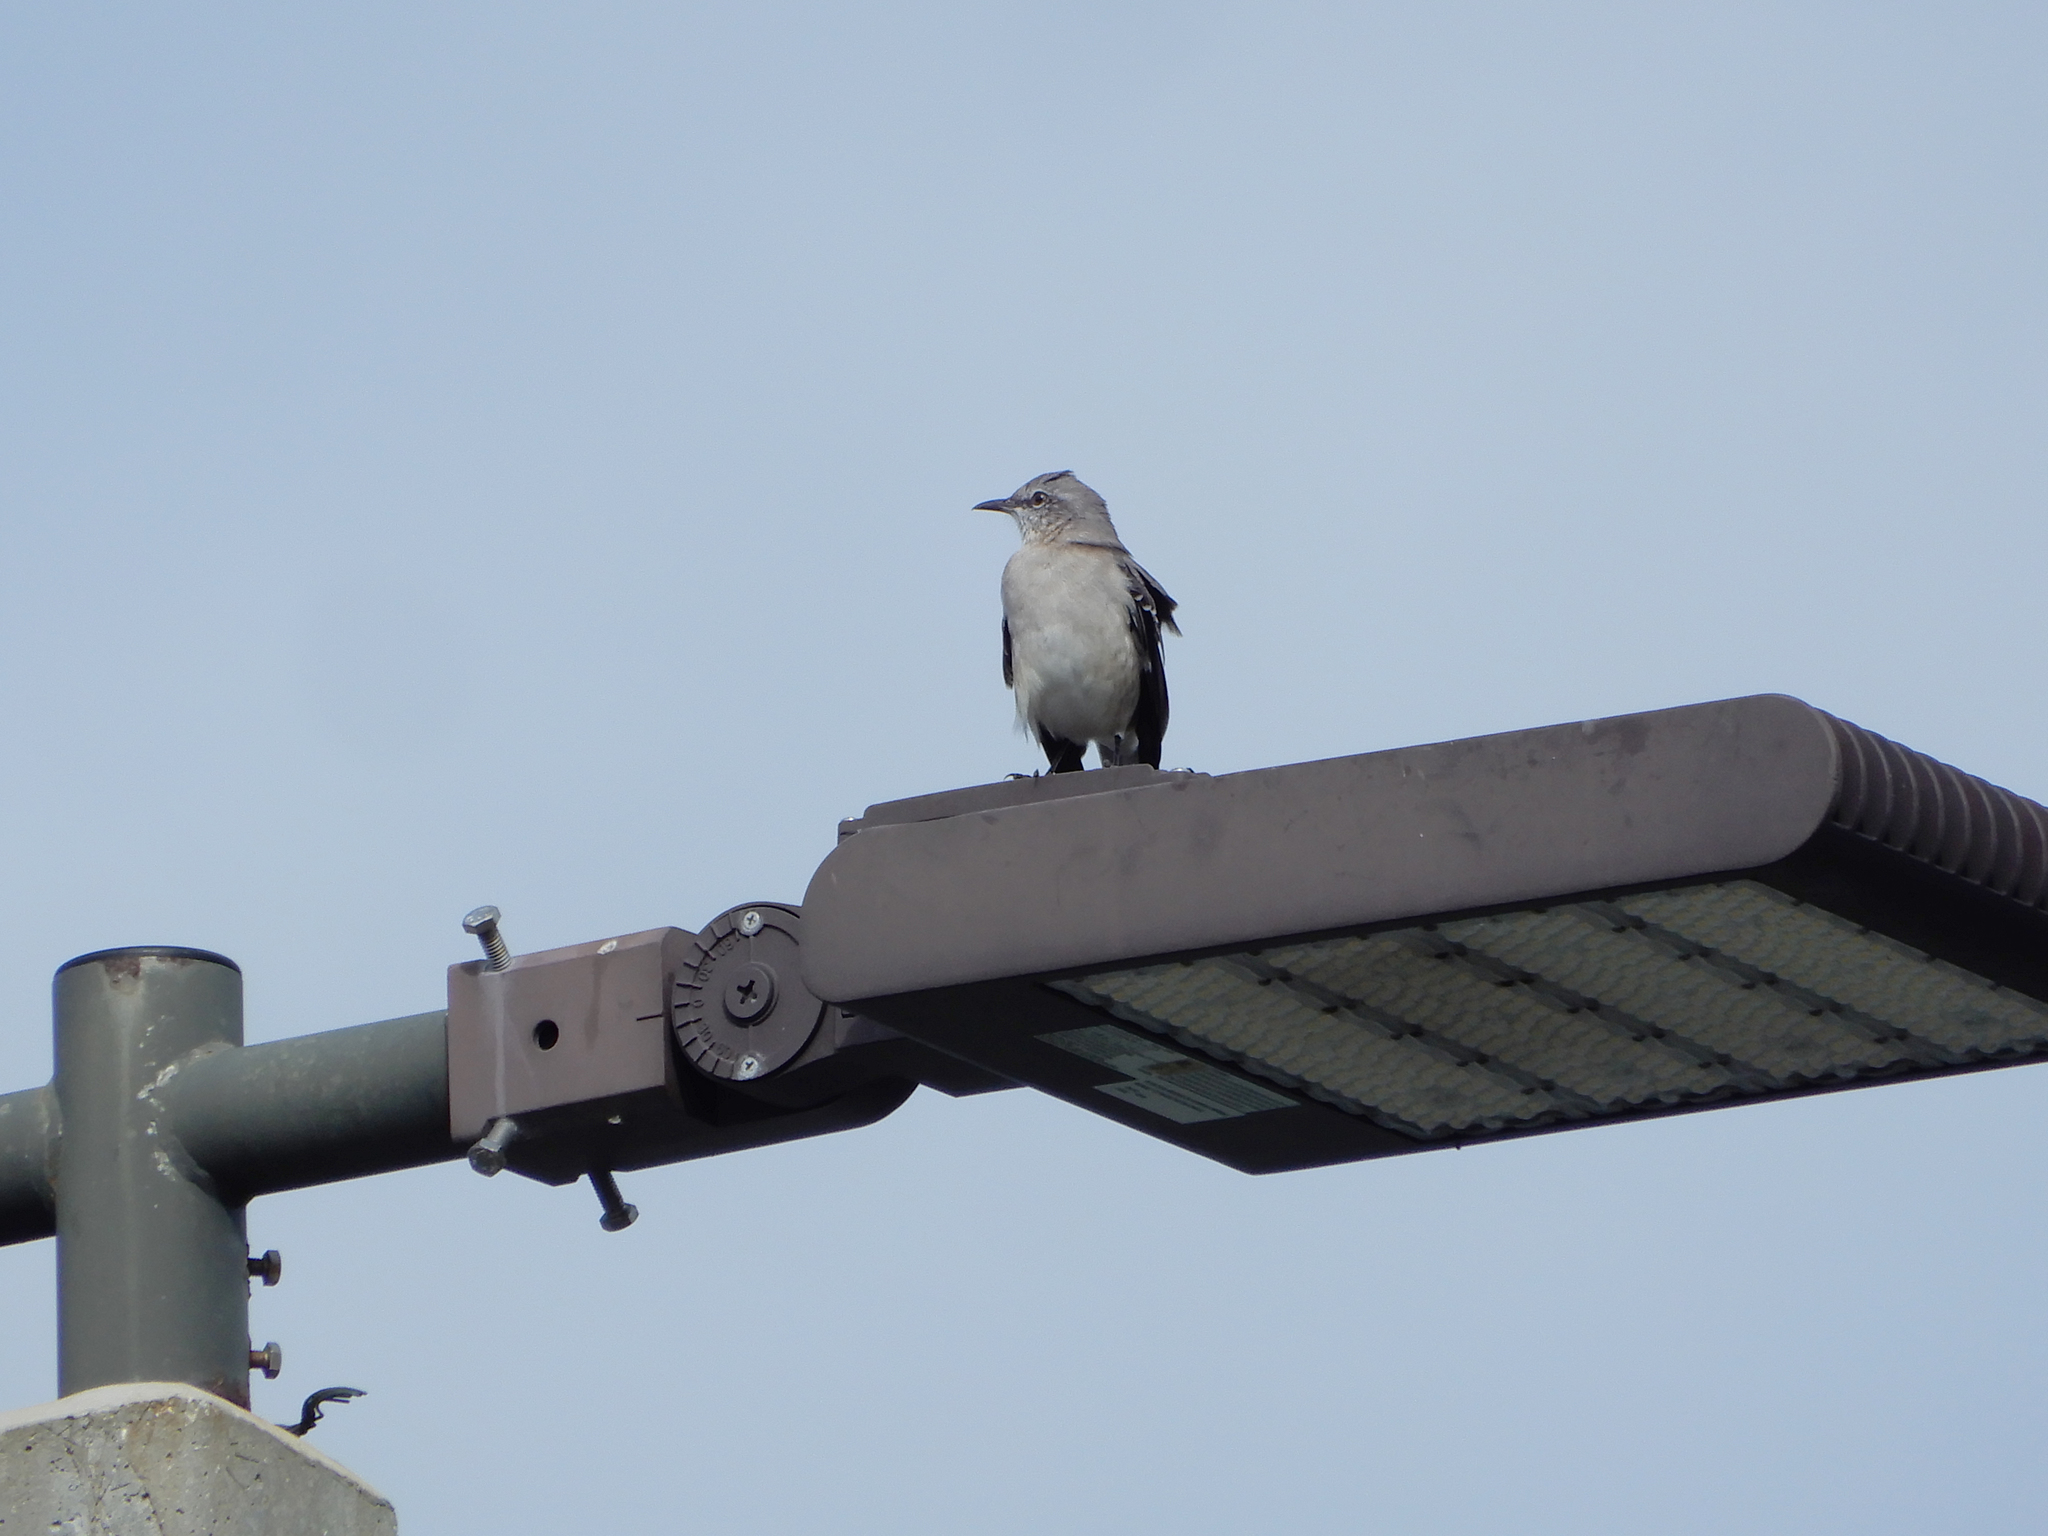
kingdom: Animalia
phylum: Chordata
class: Aves
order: Passeriformes
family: Mimidae
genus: Mimus
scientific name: Mimus polyglottos
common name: Northern mockingbird
